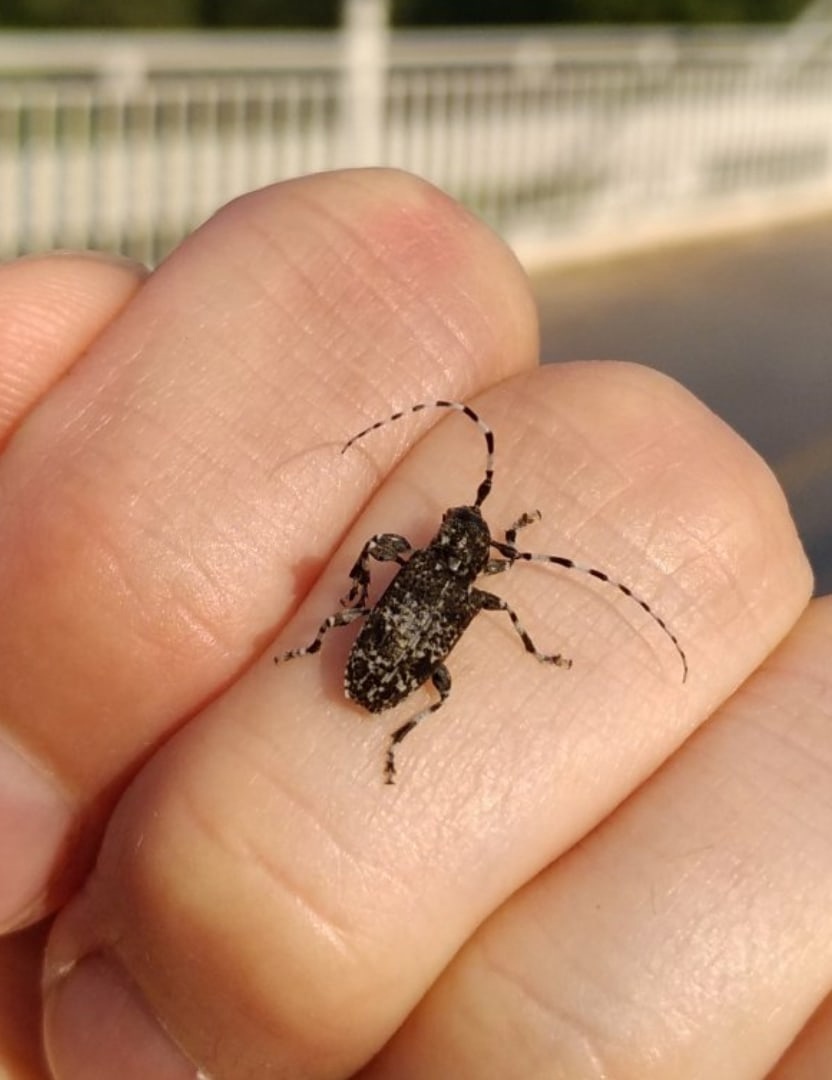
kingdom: Animalia
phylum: Arthropoda
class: Insecta
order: Coleoptera
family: Cerambycidae
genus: Aegomorphus
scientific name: Aegomorphus obscurior
